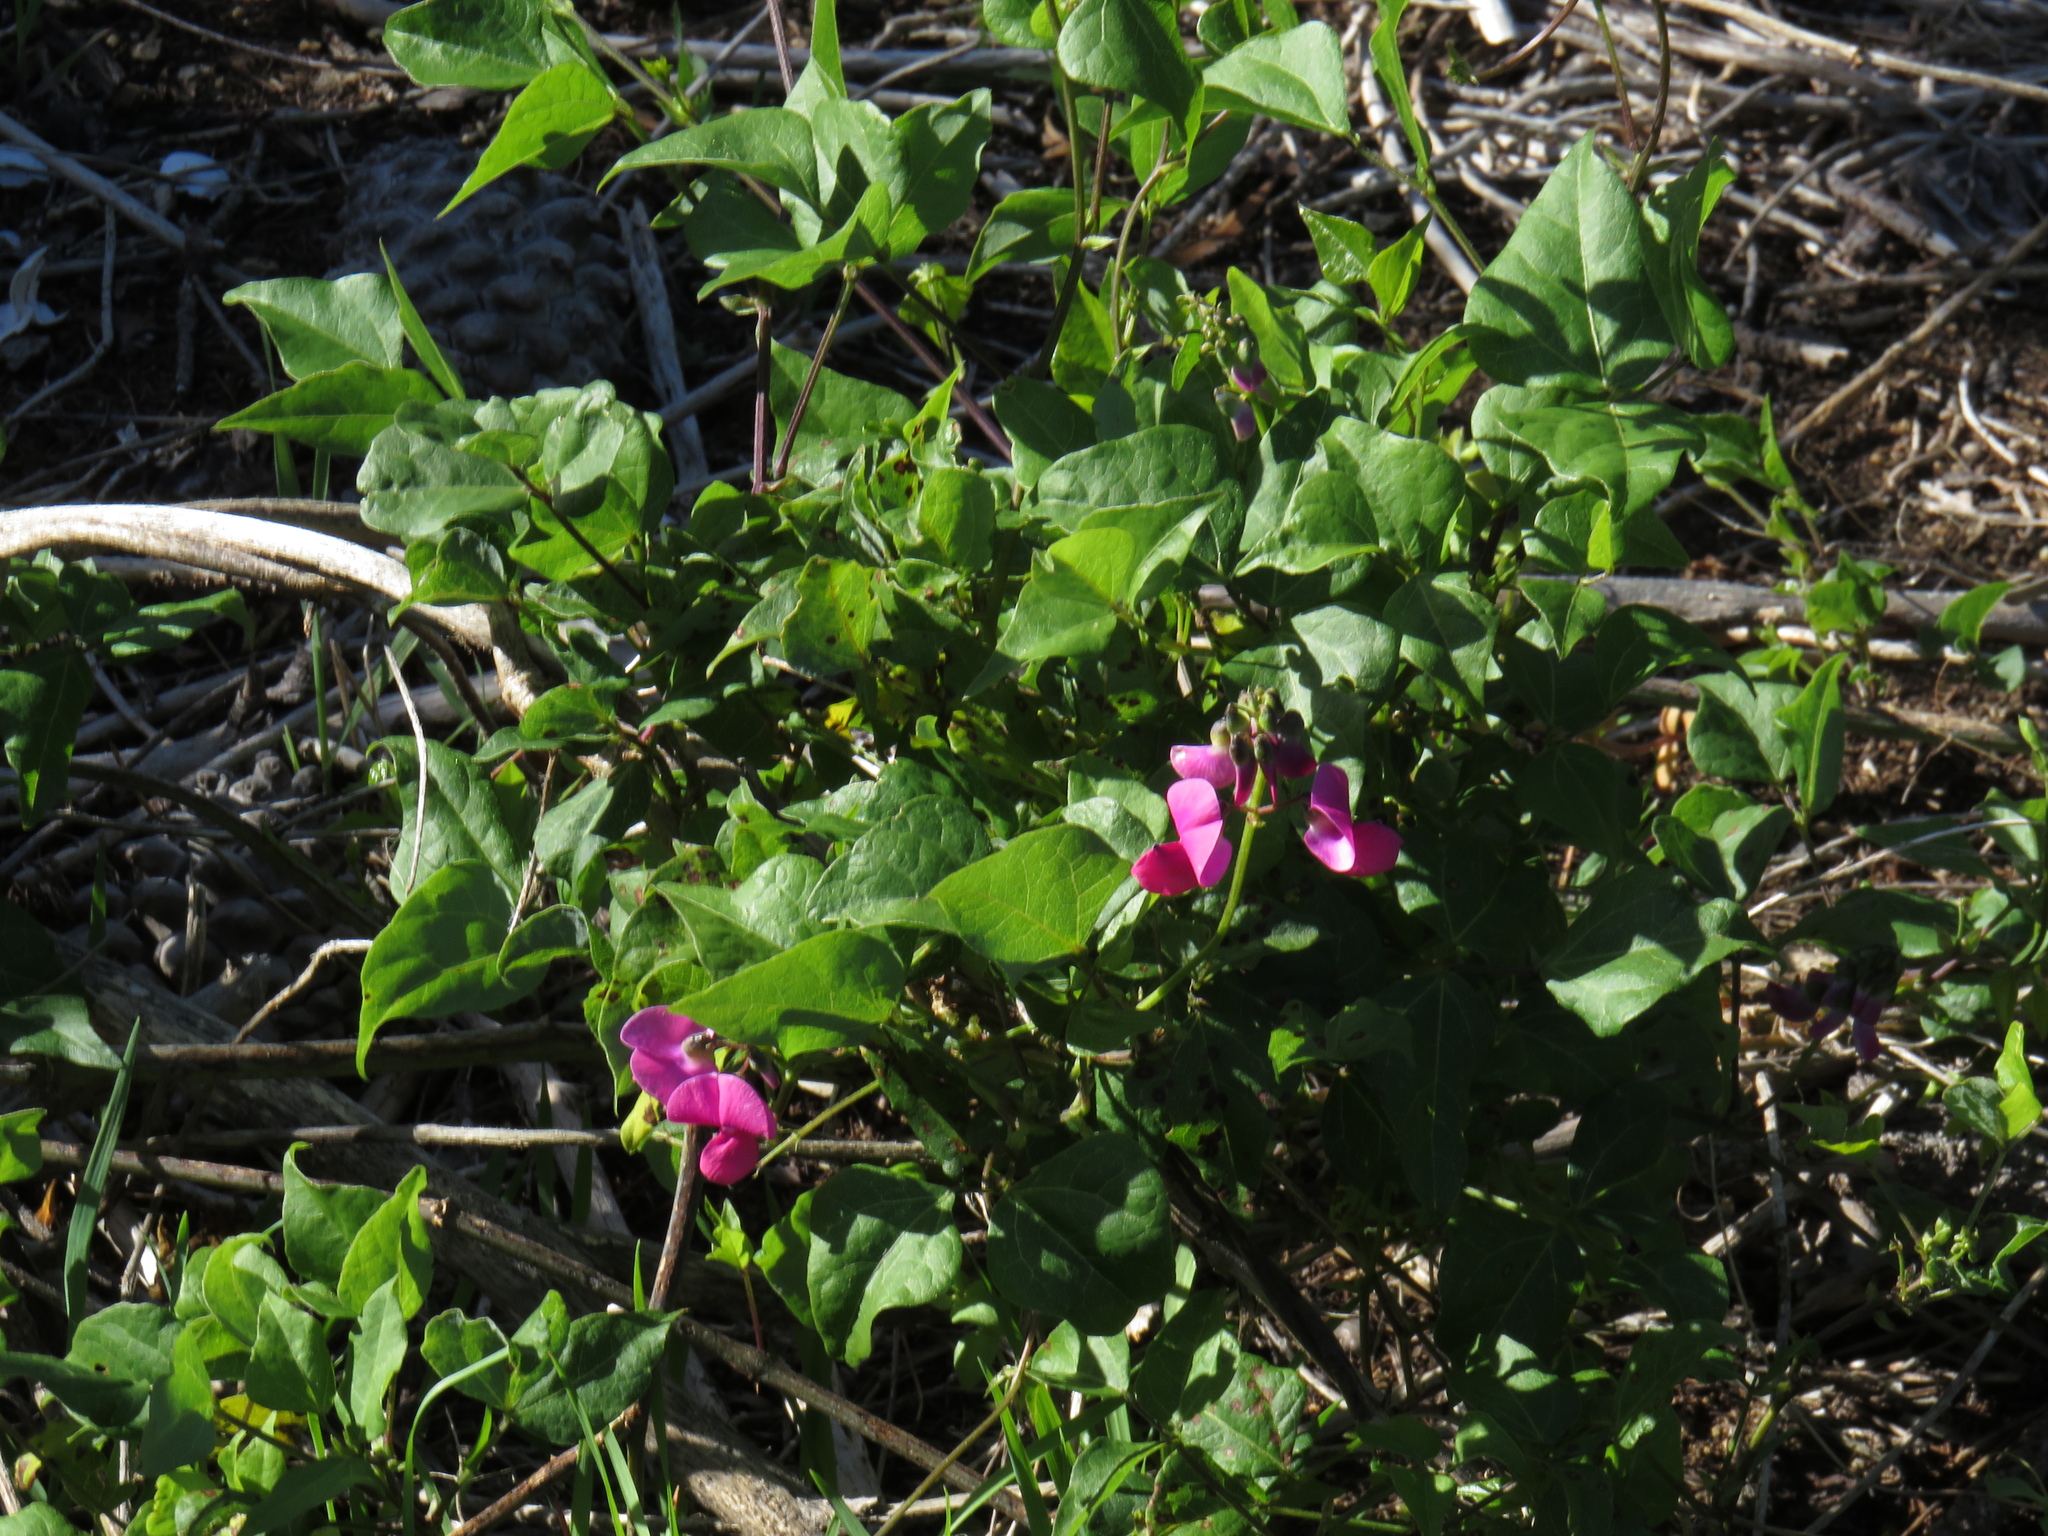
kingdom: Plantae
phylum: Tracheophyta
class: Magnoliopsida
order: Fabales
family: Fabaceae
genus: Dipogon
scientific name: Dipogon lignosus
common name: Okie bean
